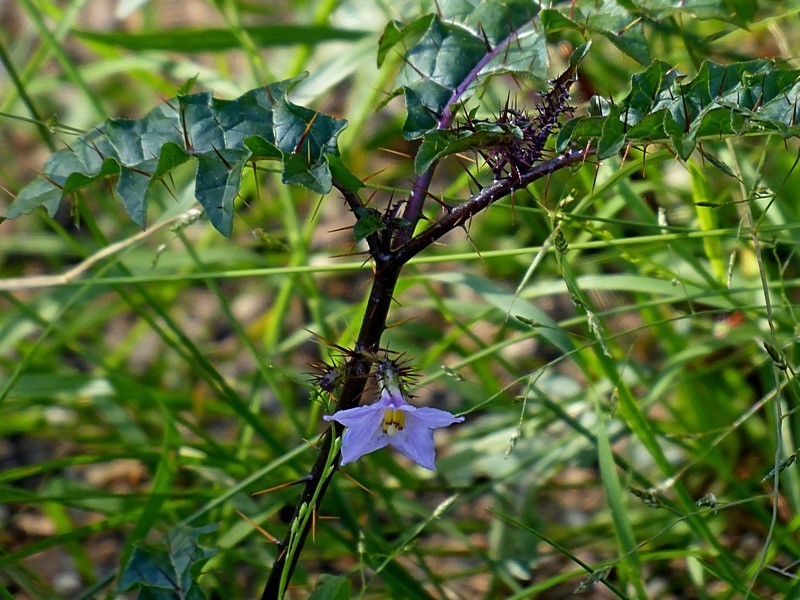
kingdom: Plantae
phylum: Tracheophyta
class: Magnoliopsida
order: Solanales
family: Solanaceae
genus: Solanum
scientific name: Solanum prinophyllum
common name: Forest nightshade
